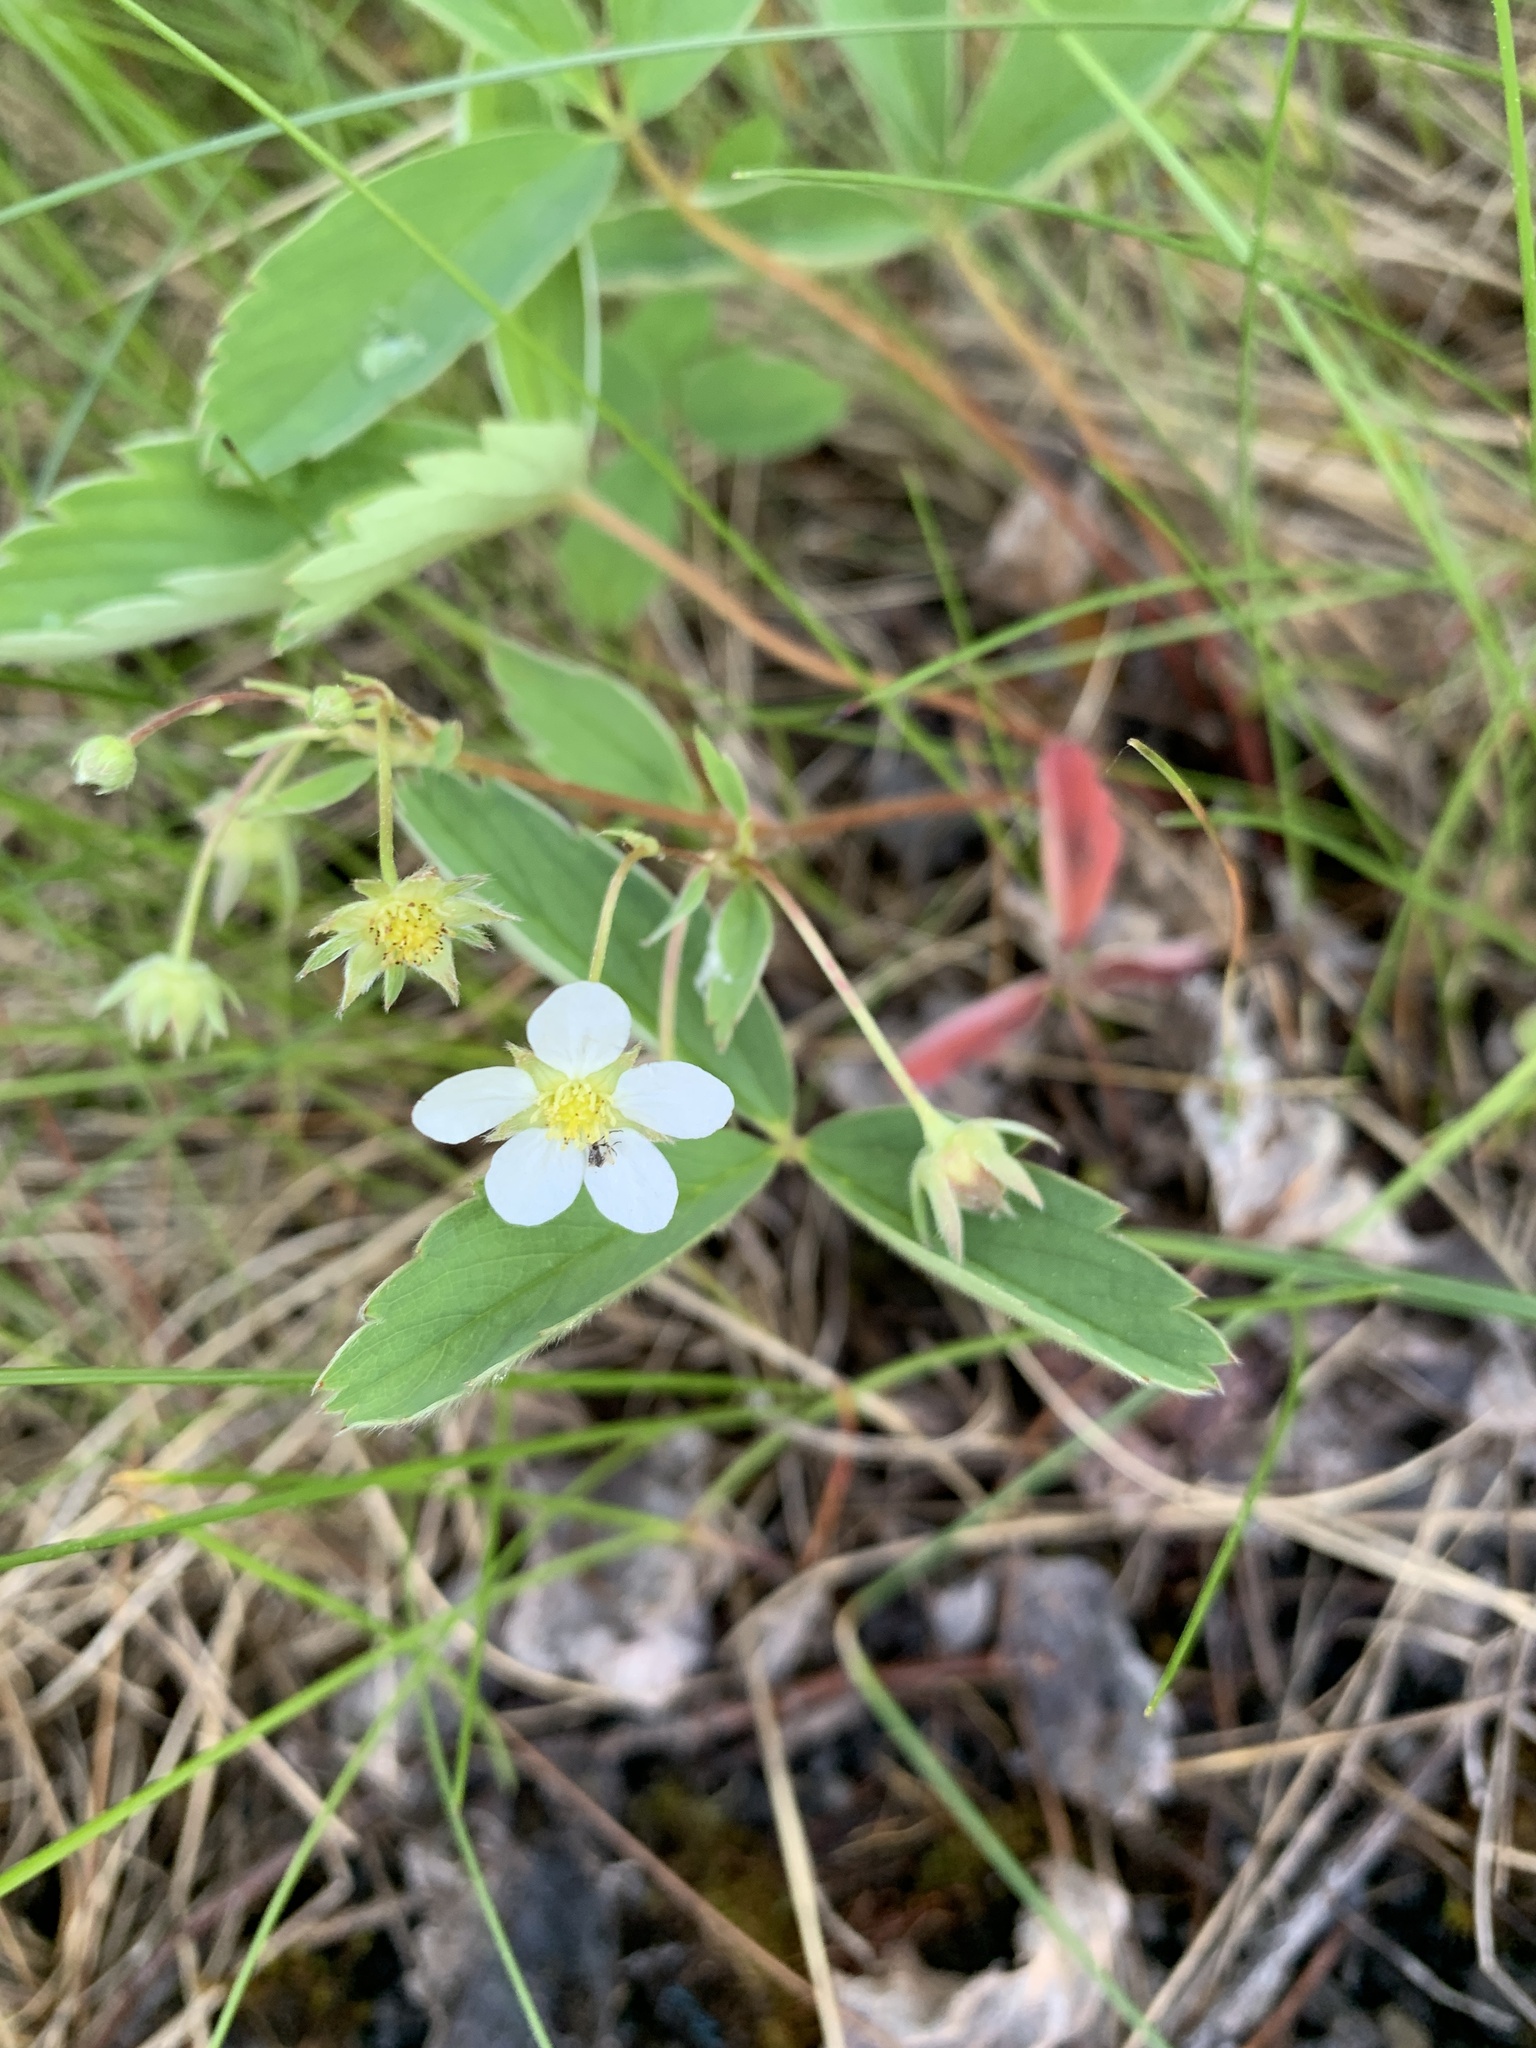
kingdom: Plantae
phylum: Tracheophyta
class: Magnoliopsida
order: Rosales
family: Rosaceae
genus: Fragaria
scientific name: Fragaria virginiana
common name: Thickleaved wild strawberry
